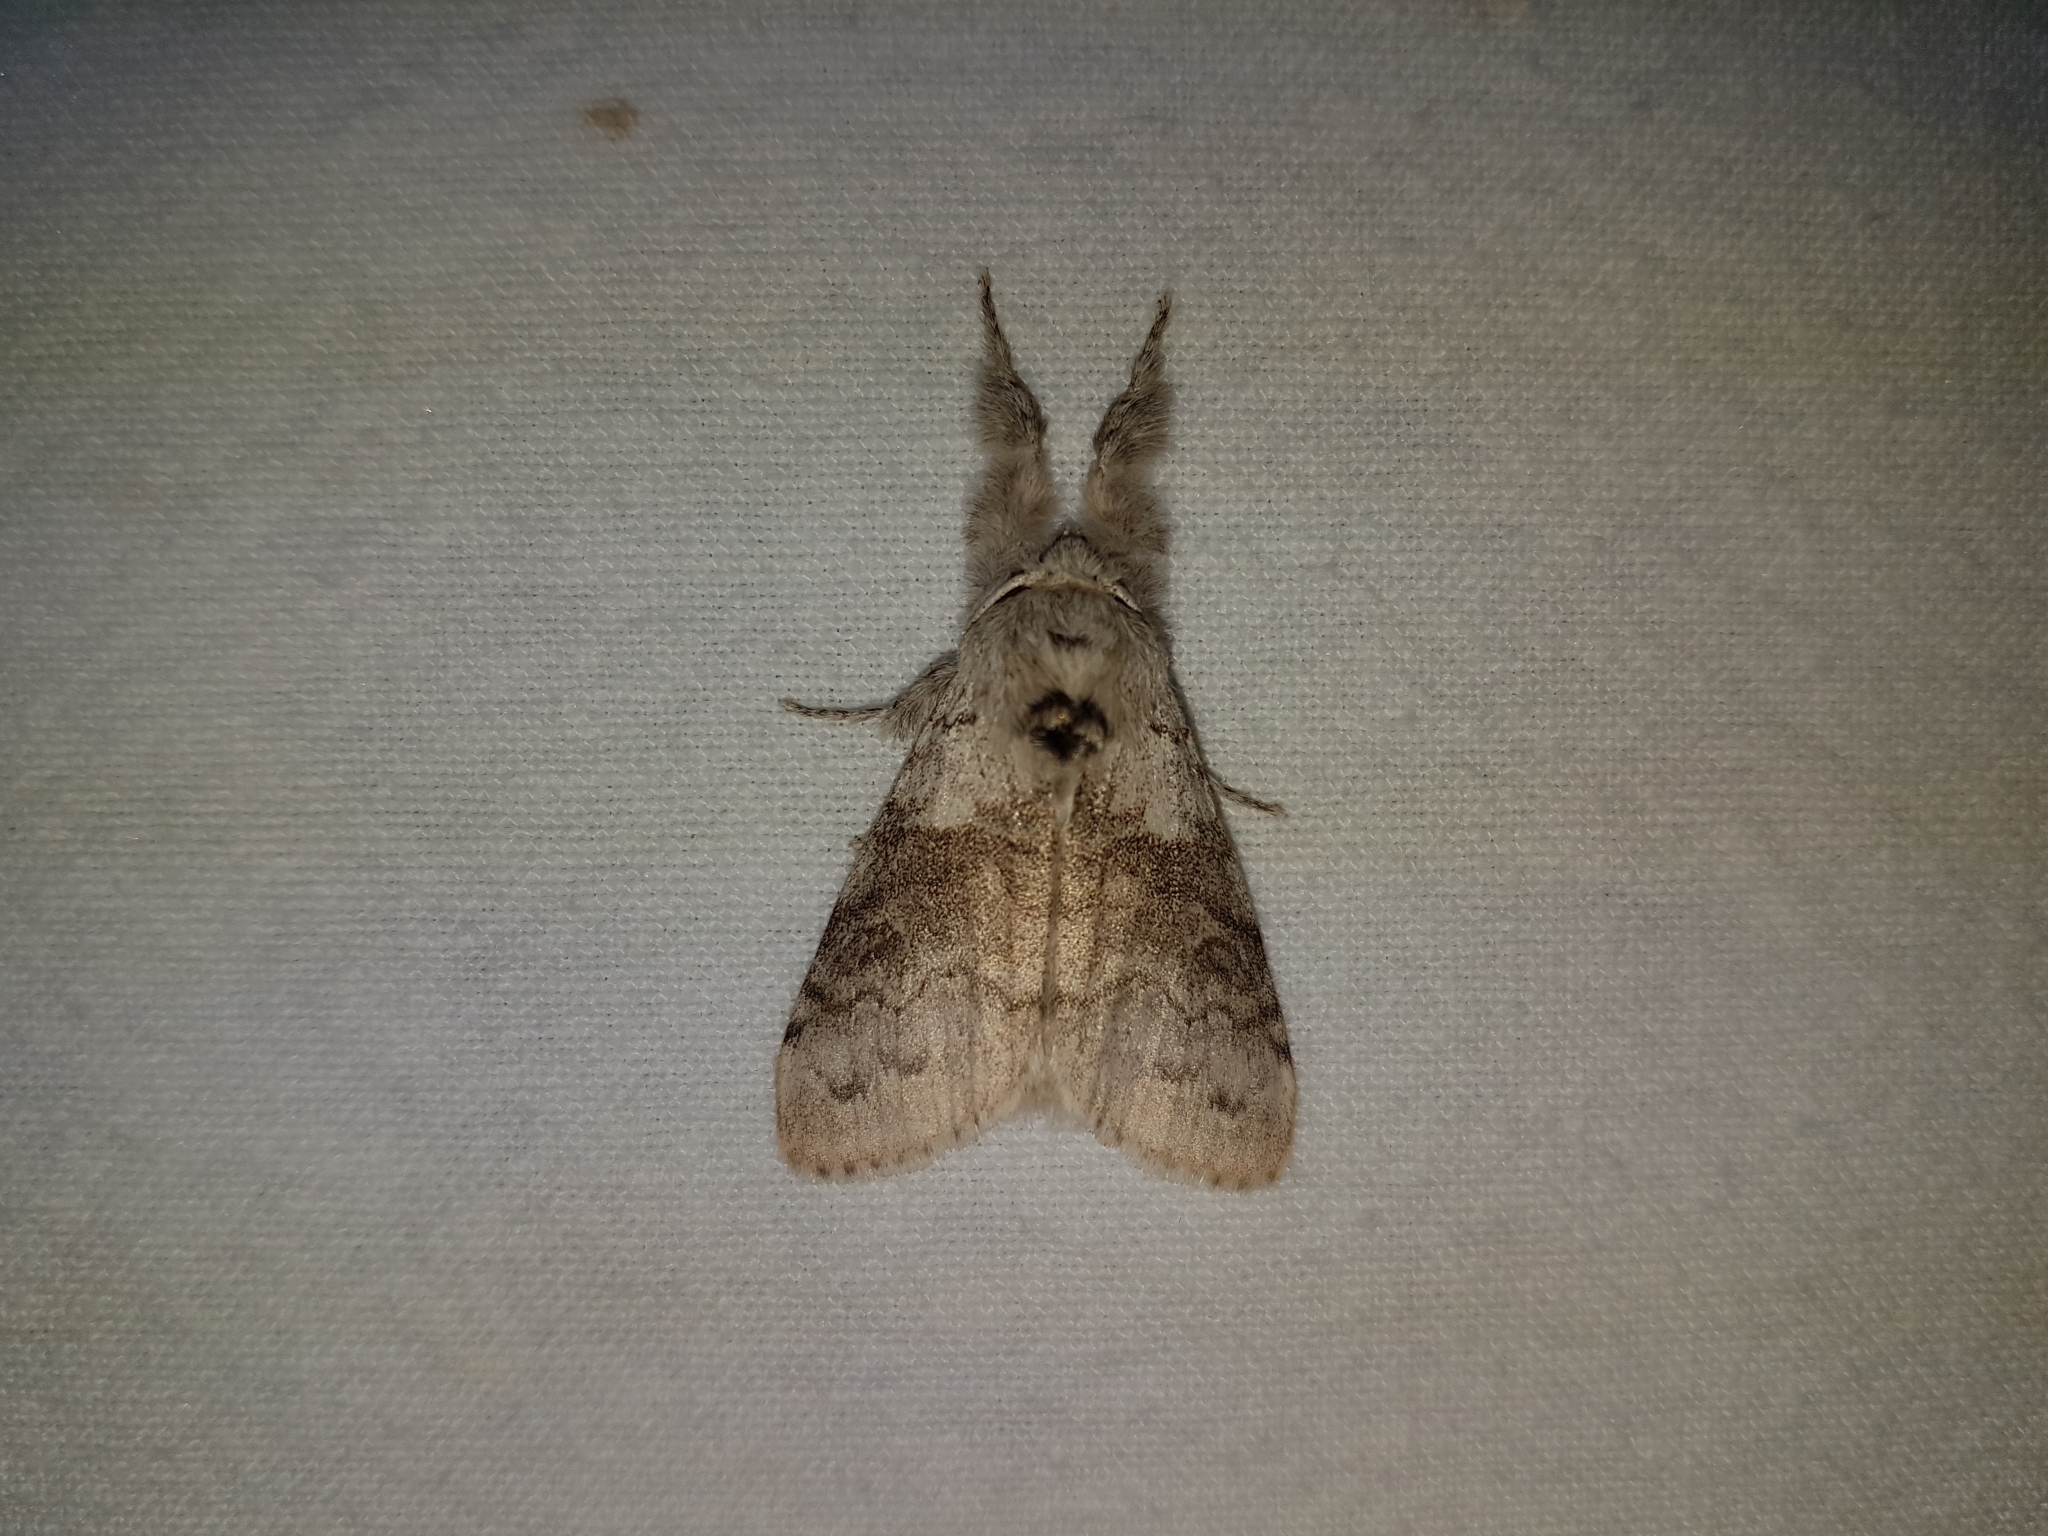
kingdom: Animalia
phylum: Arthropoda
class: Insecta
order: Lepidoptera
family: Erebidae
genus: Calliteara
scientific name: Calliteara pudibunda
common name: Pale tussock
